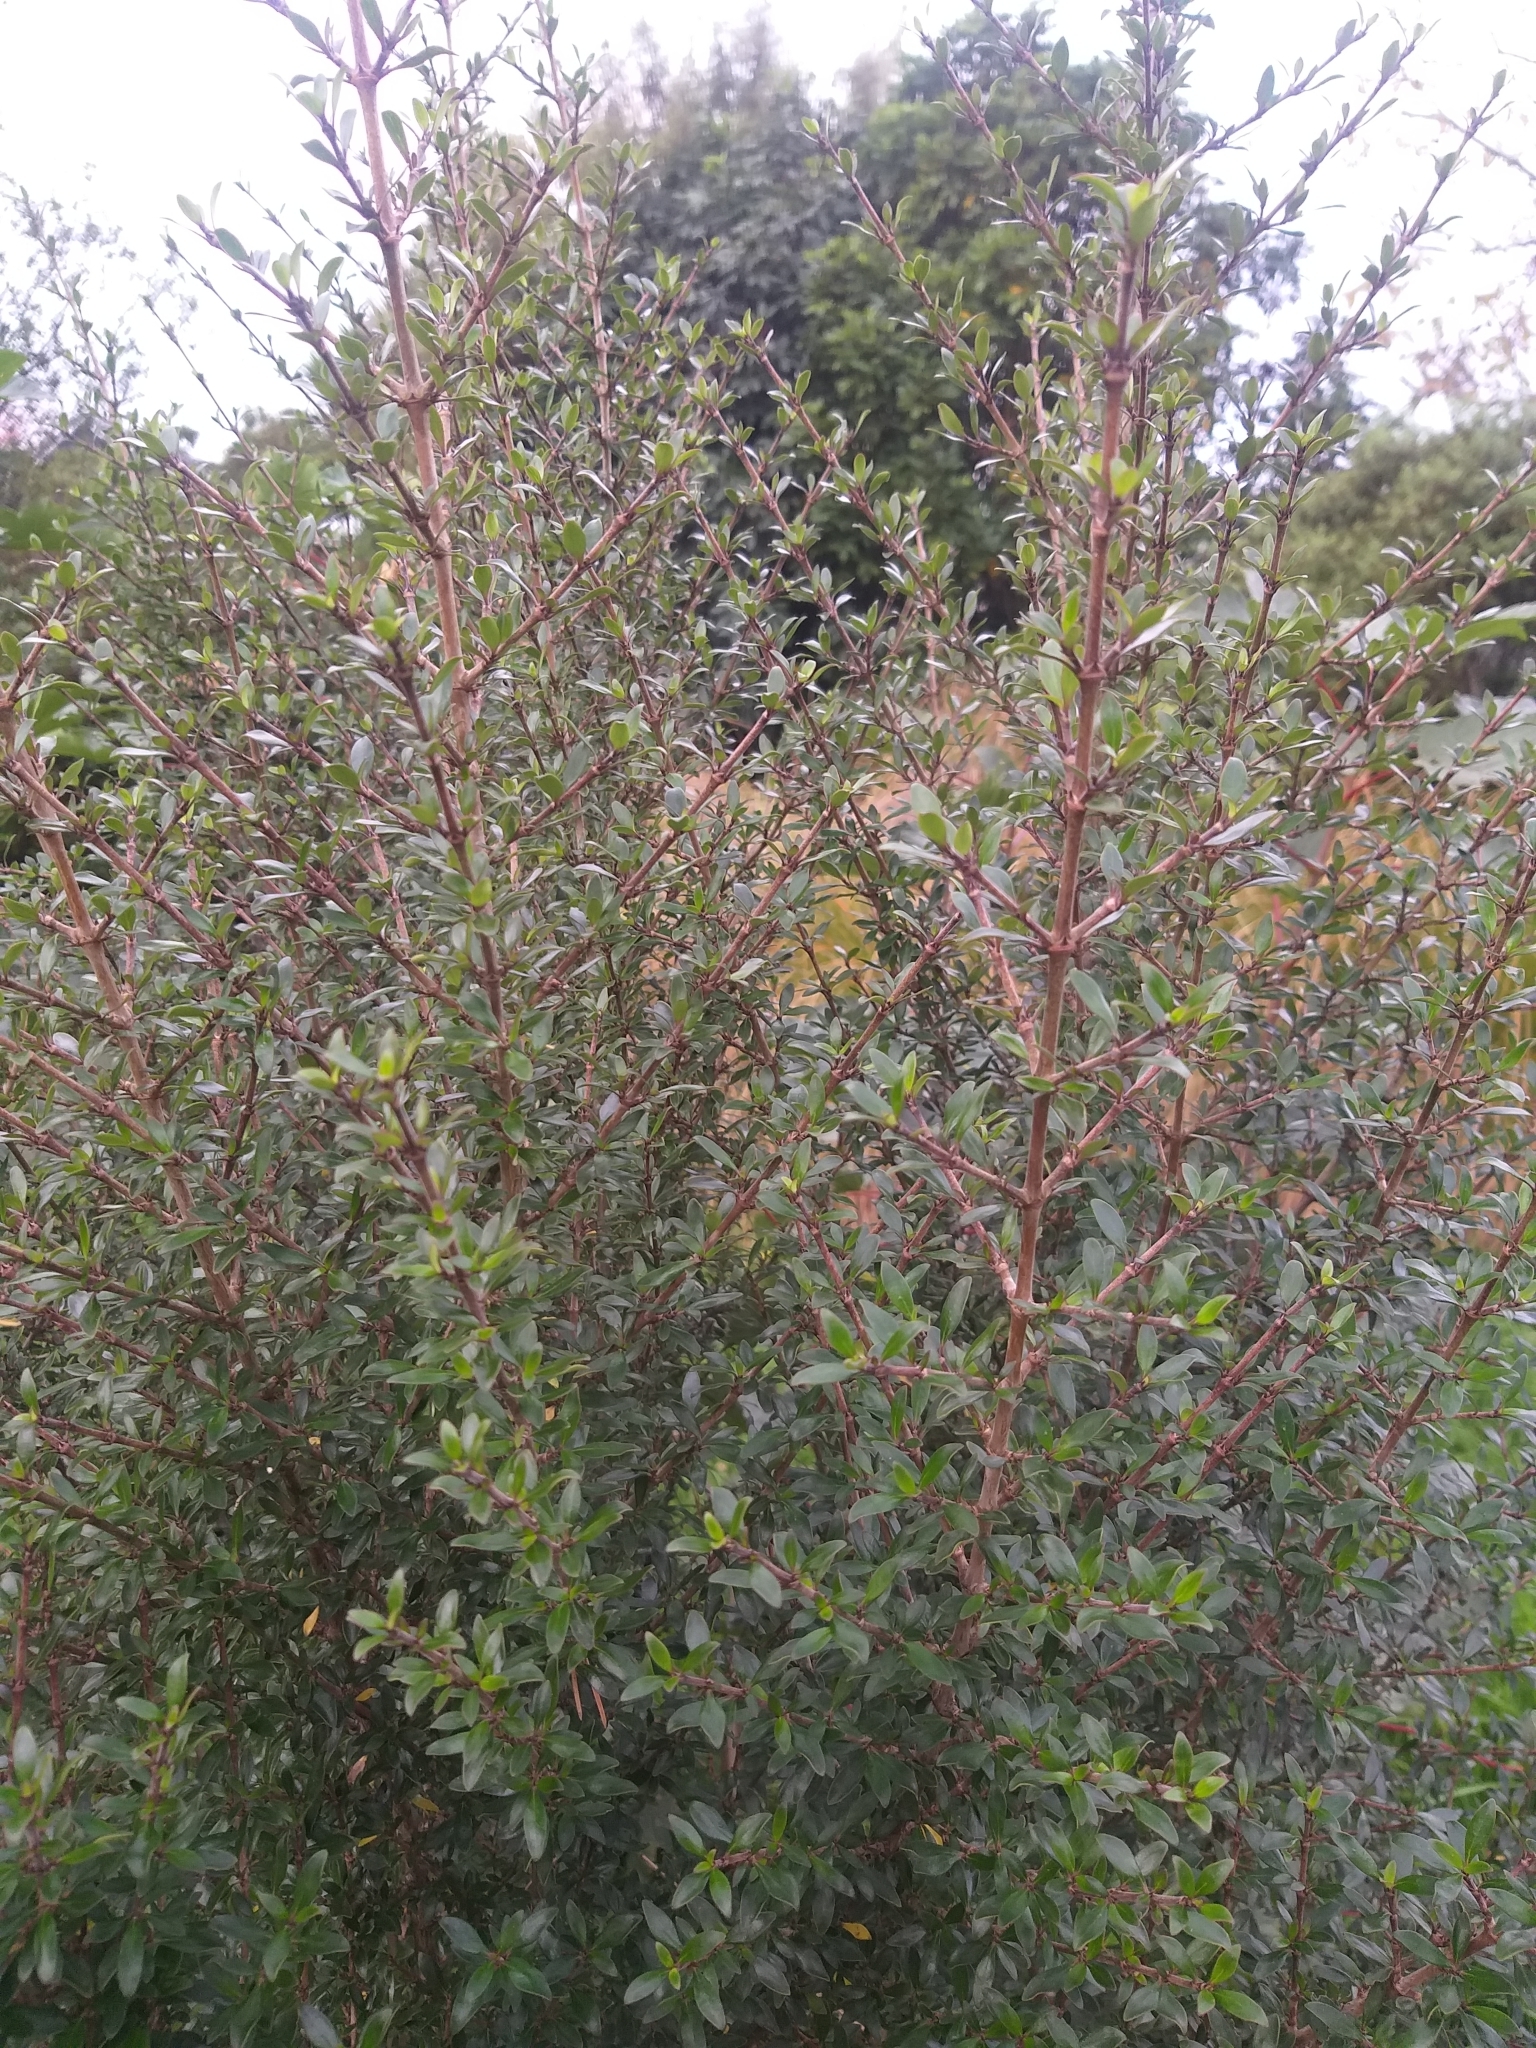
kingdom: Plantae
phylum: Tracheophyta
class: Magnoliopsida
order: Gentianales
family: Rubiaceae
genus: Coprosma
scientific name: Coprosma cunninghamii
